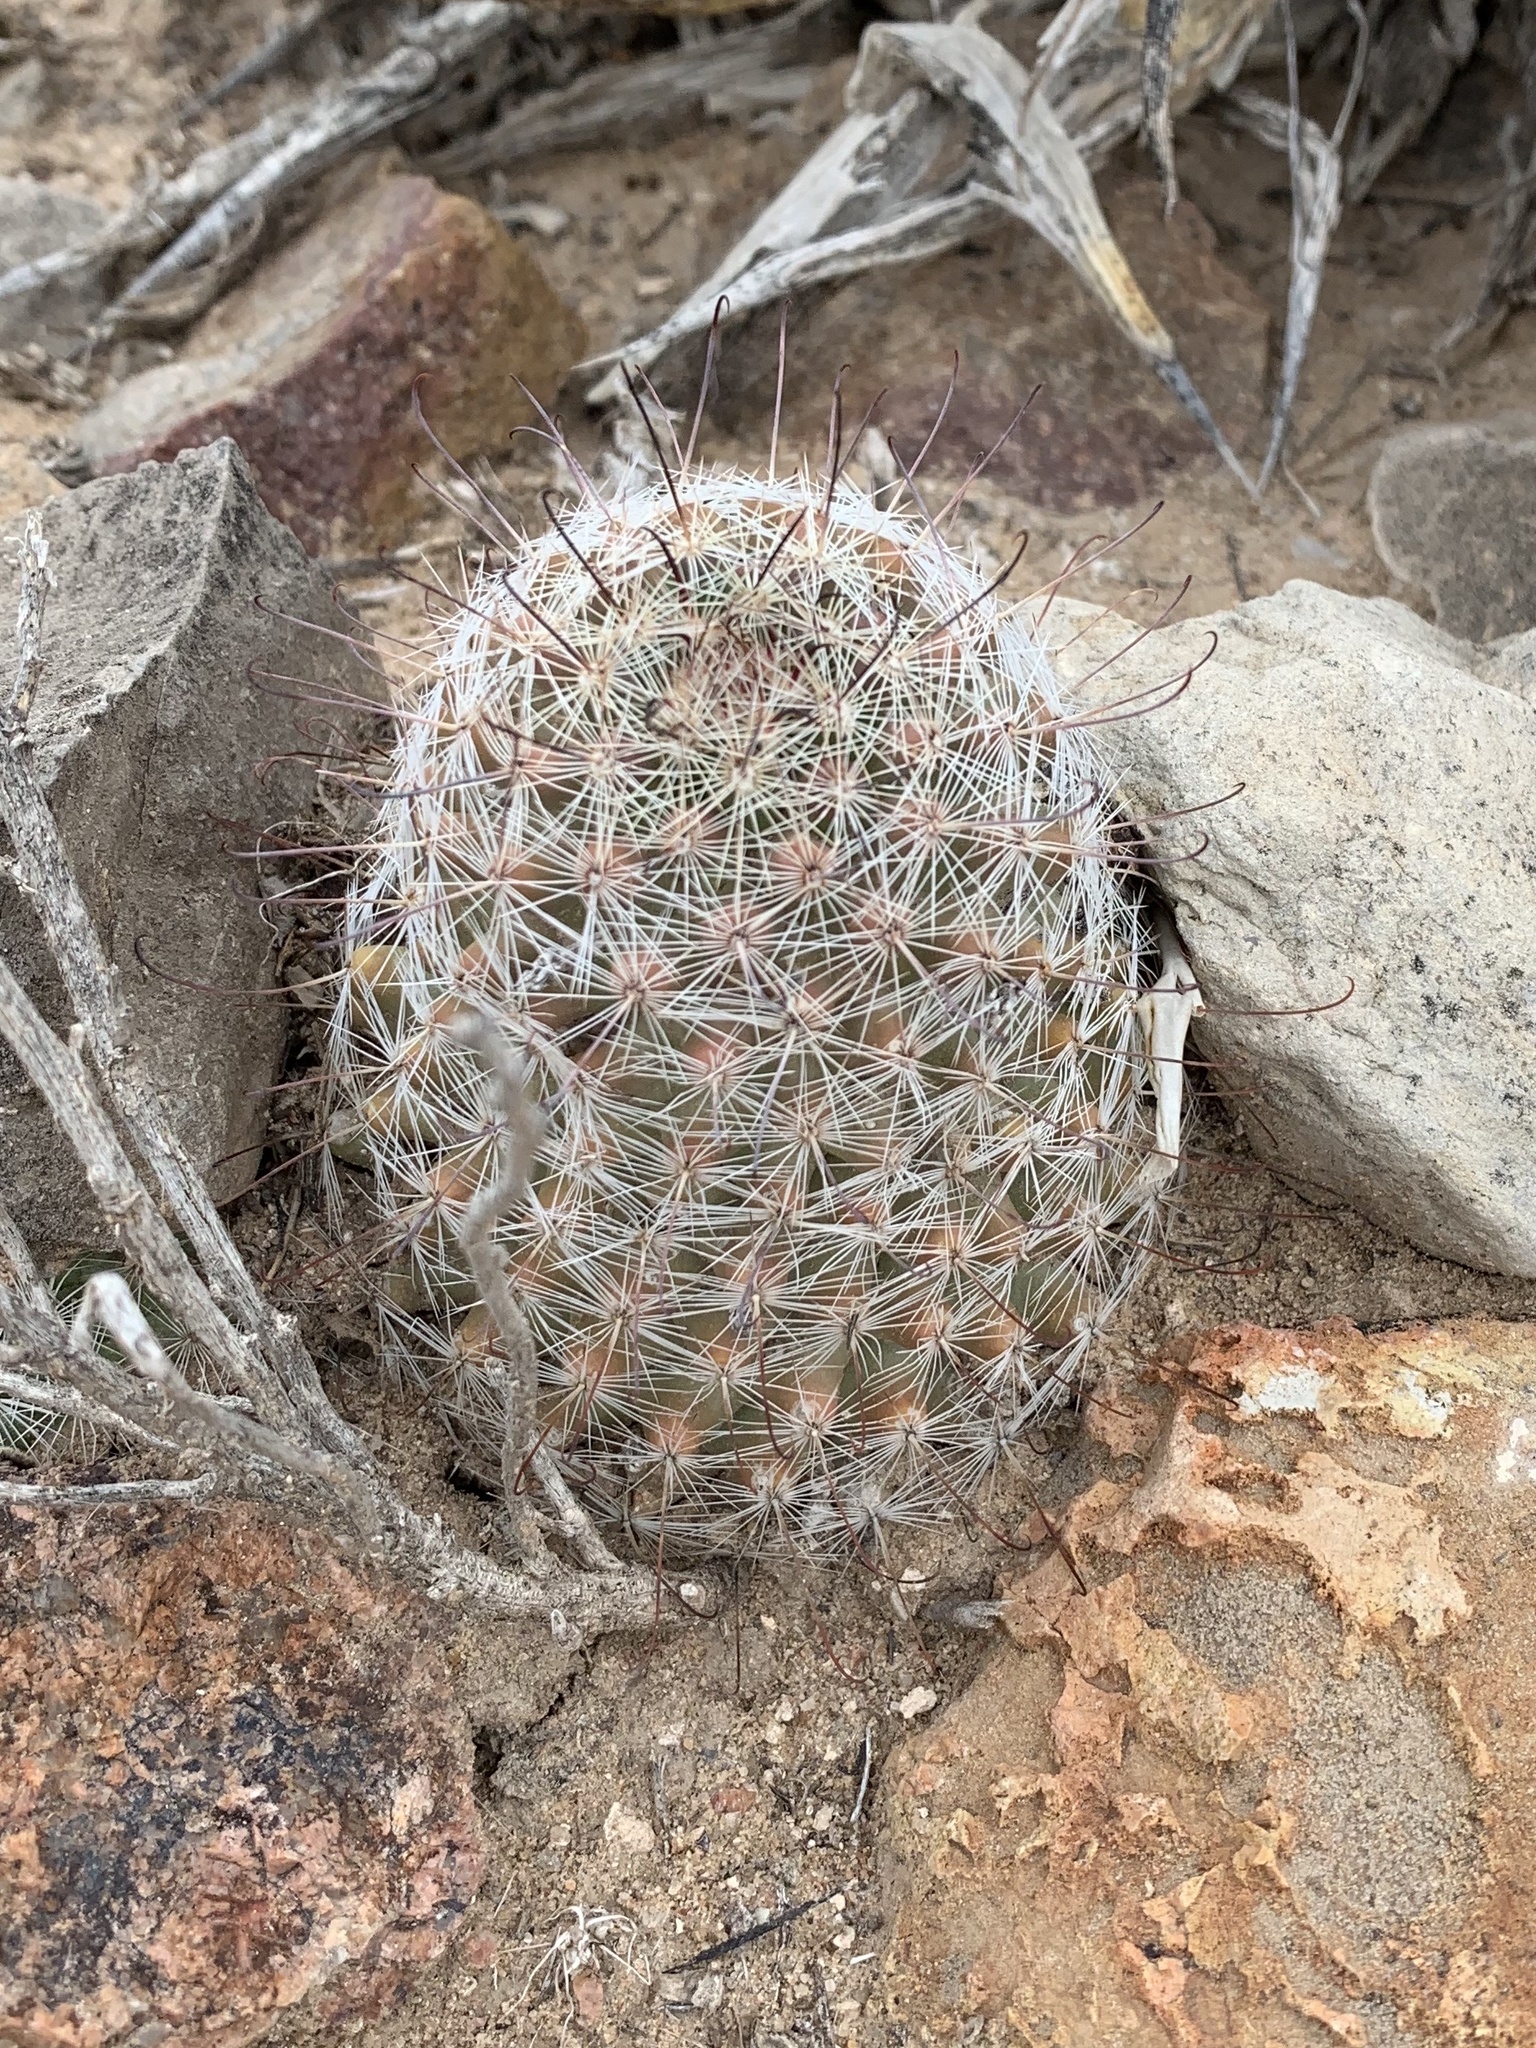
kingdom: Plantae
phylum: Tracheophyta
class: Magnoliopsida
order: Caryophyllales
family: Cactaceae
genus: Cochemiea
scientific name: Cochemiea grahamii
